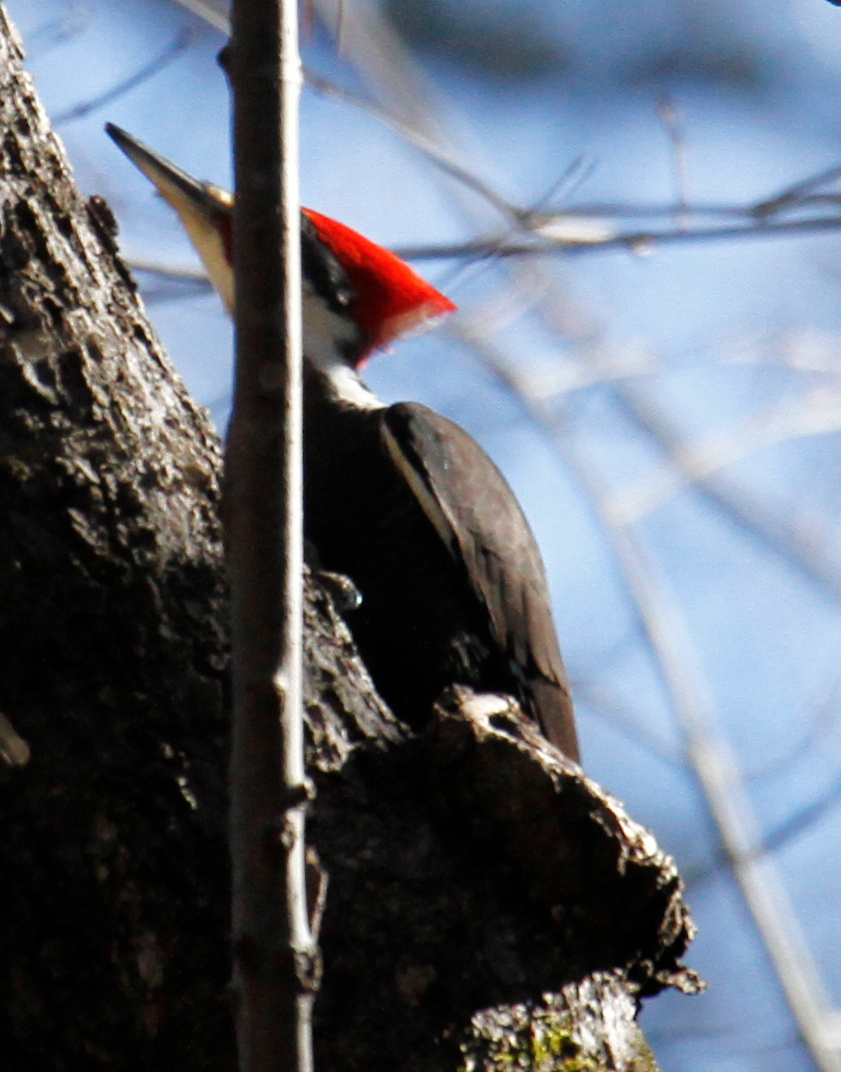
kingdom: Animalia
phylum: Chordata
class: Aves
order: Piciformes
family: Picidae
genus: Dryocopus
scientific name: Dryocopus pileatus
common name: Pileated woodpecker
